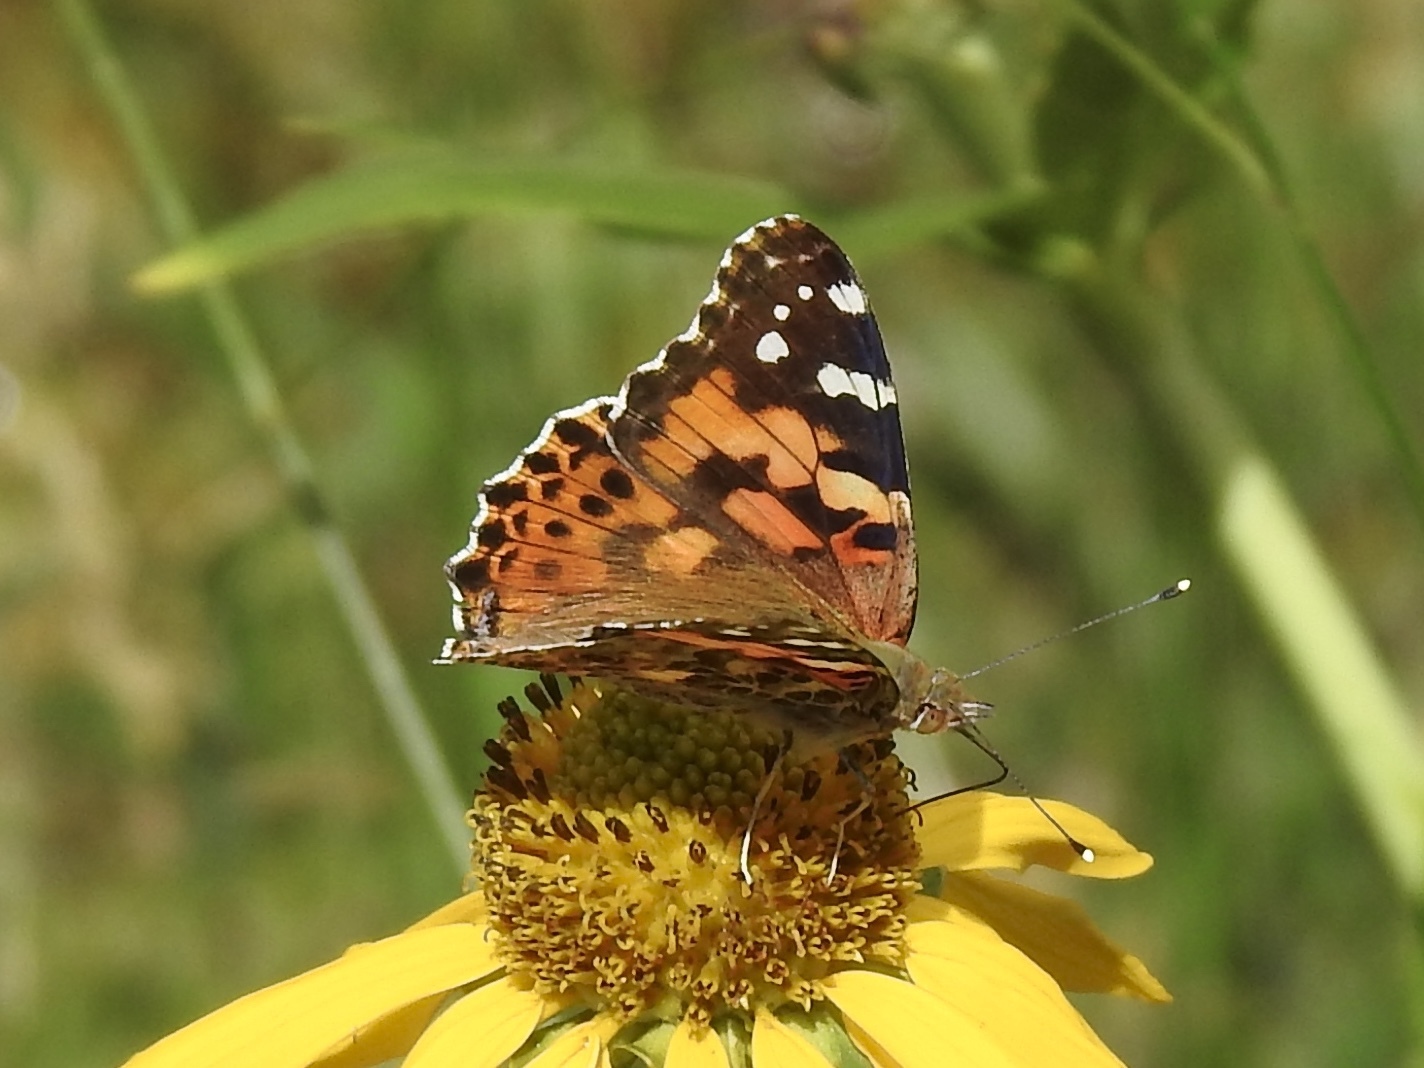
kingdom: Animalia
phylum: Arthropoda
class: Insecta
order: Lepidoptera
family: Nymphalidae
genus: Vanessa
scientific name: Vanessa cardui
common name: Painted lady
